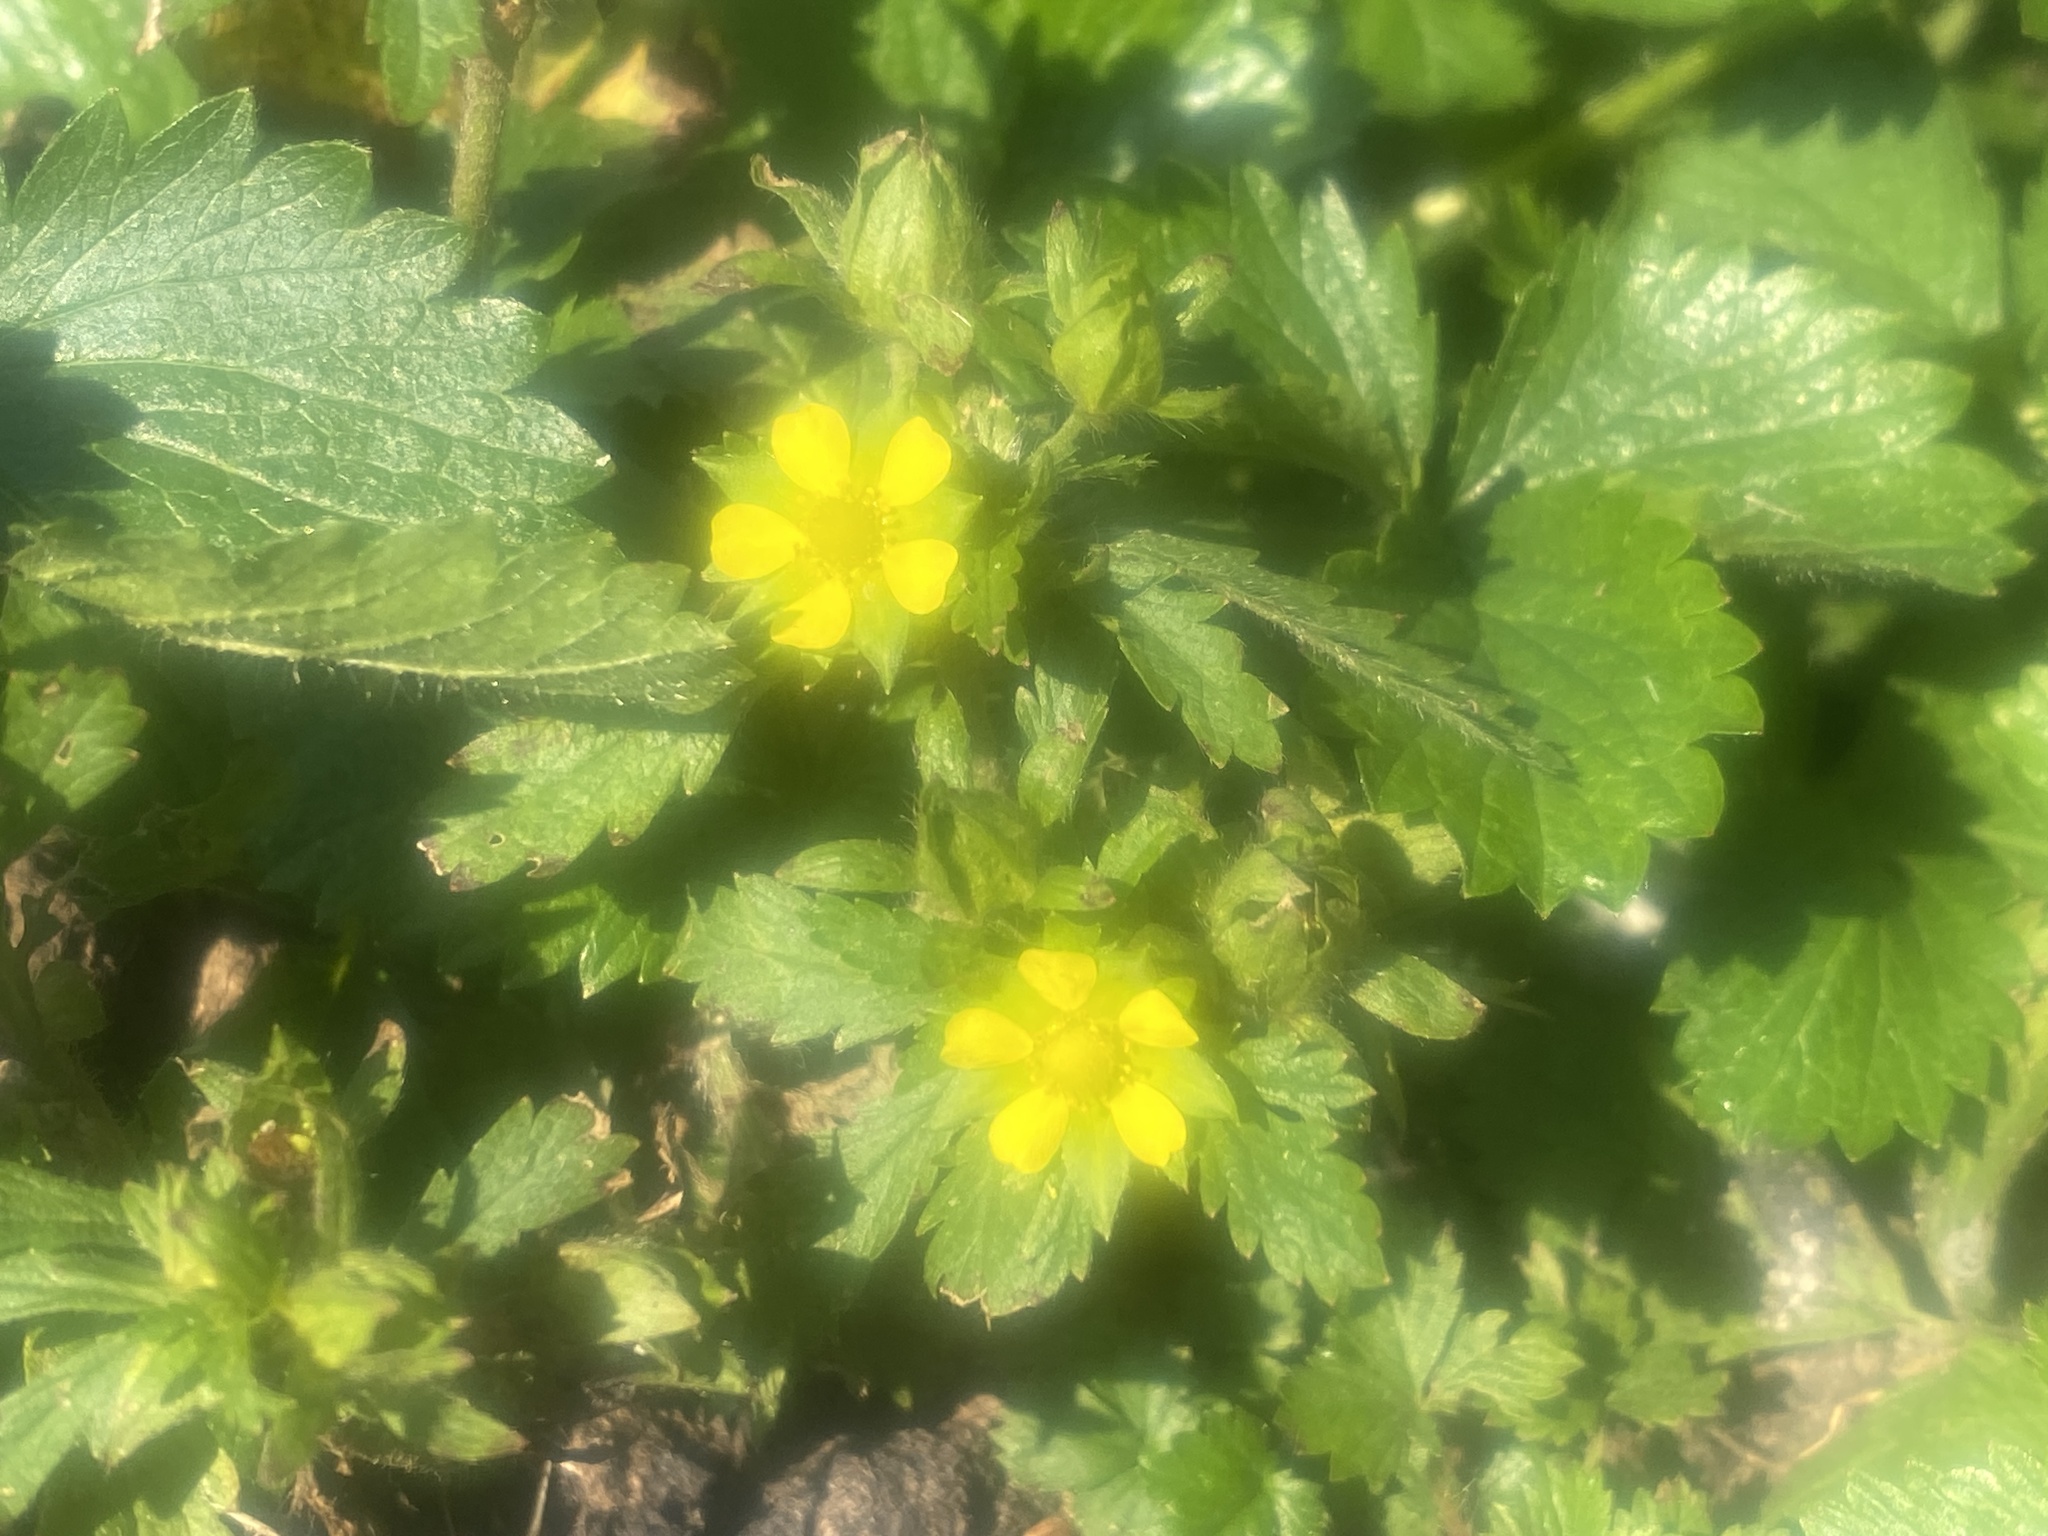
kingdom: Plantae
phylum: Tracheophyta
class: Magnoliopsida
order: Rosales
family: Rosaceae
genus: Potentilla
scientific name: Potentilla norvegica
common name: Ternate-leaved cinquefoil
